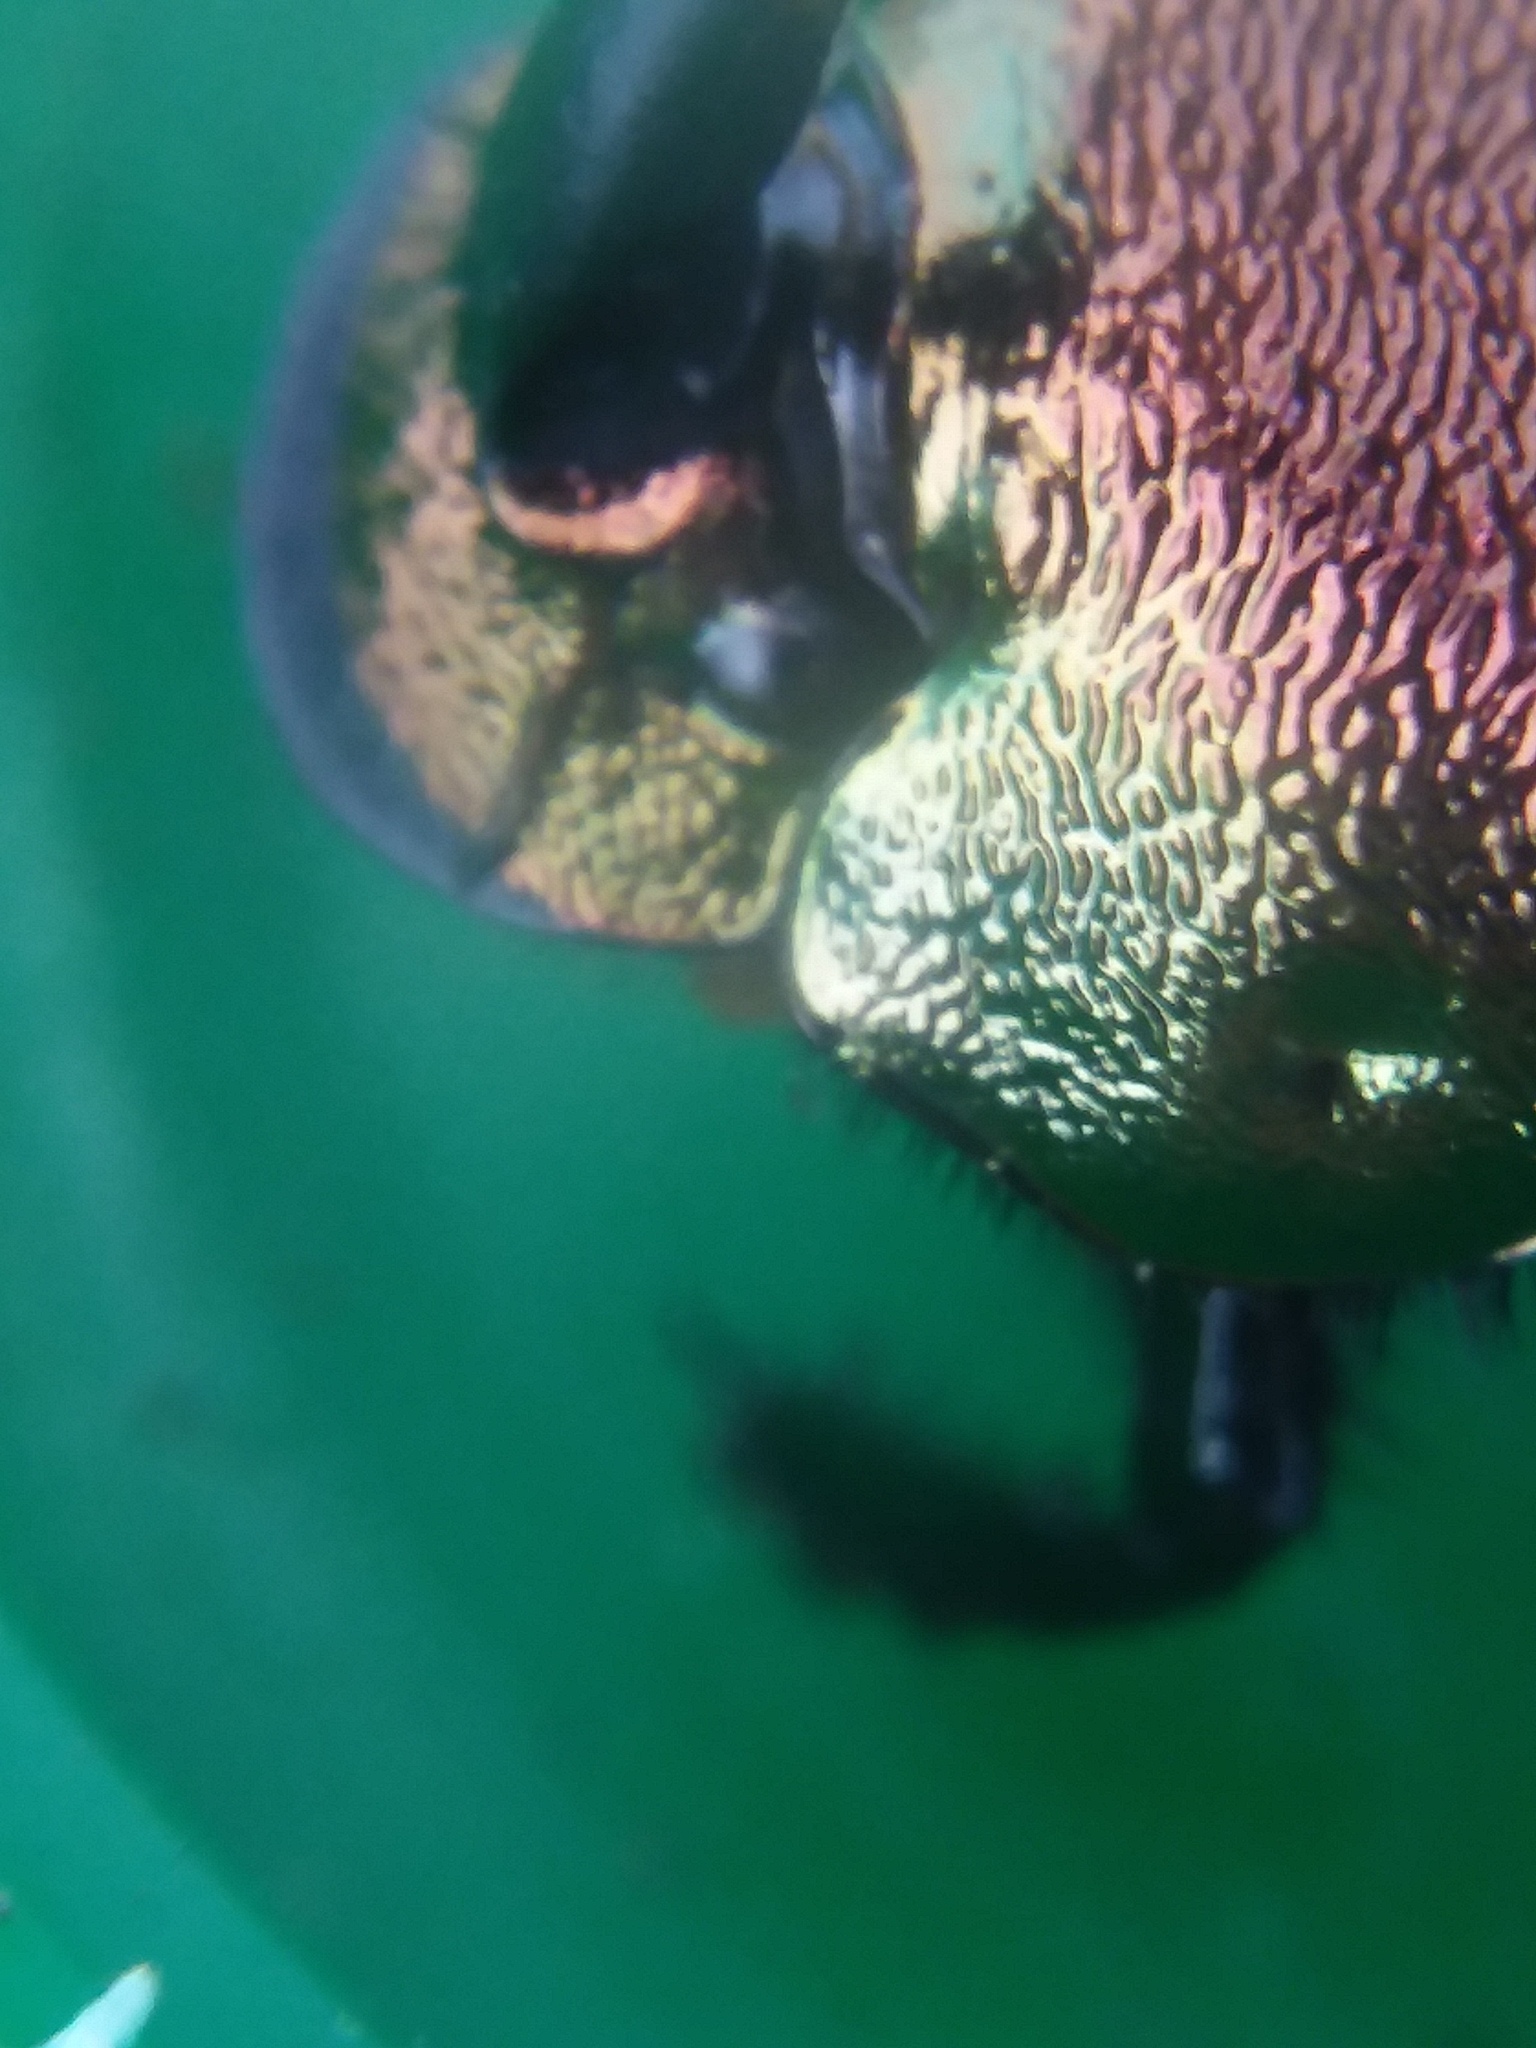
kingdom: Animalia
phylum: Arthropoda
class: Insecta
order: Coleoptera
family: Scarabaeidae
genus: Phanaeus
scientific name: Phanaeus vindex
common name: Rainbow scarab
